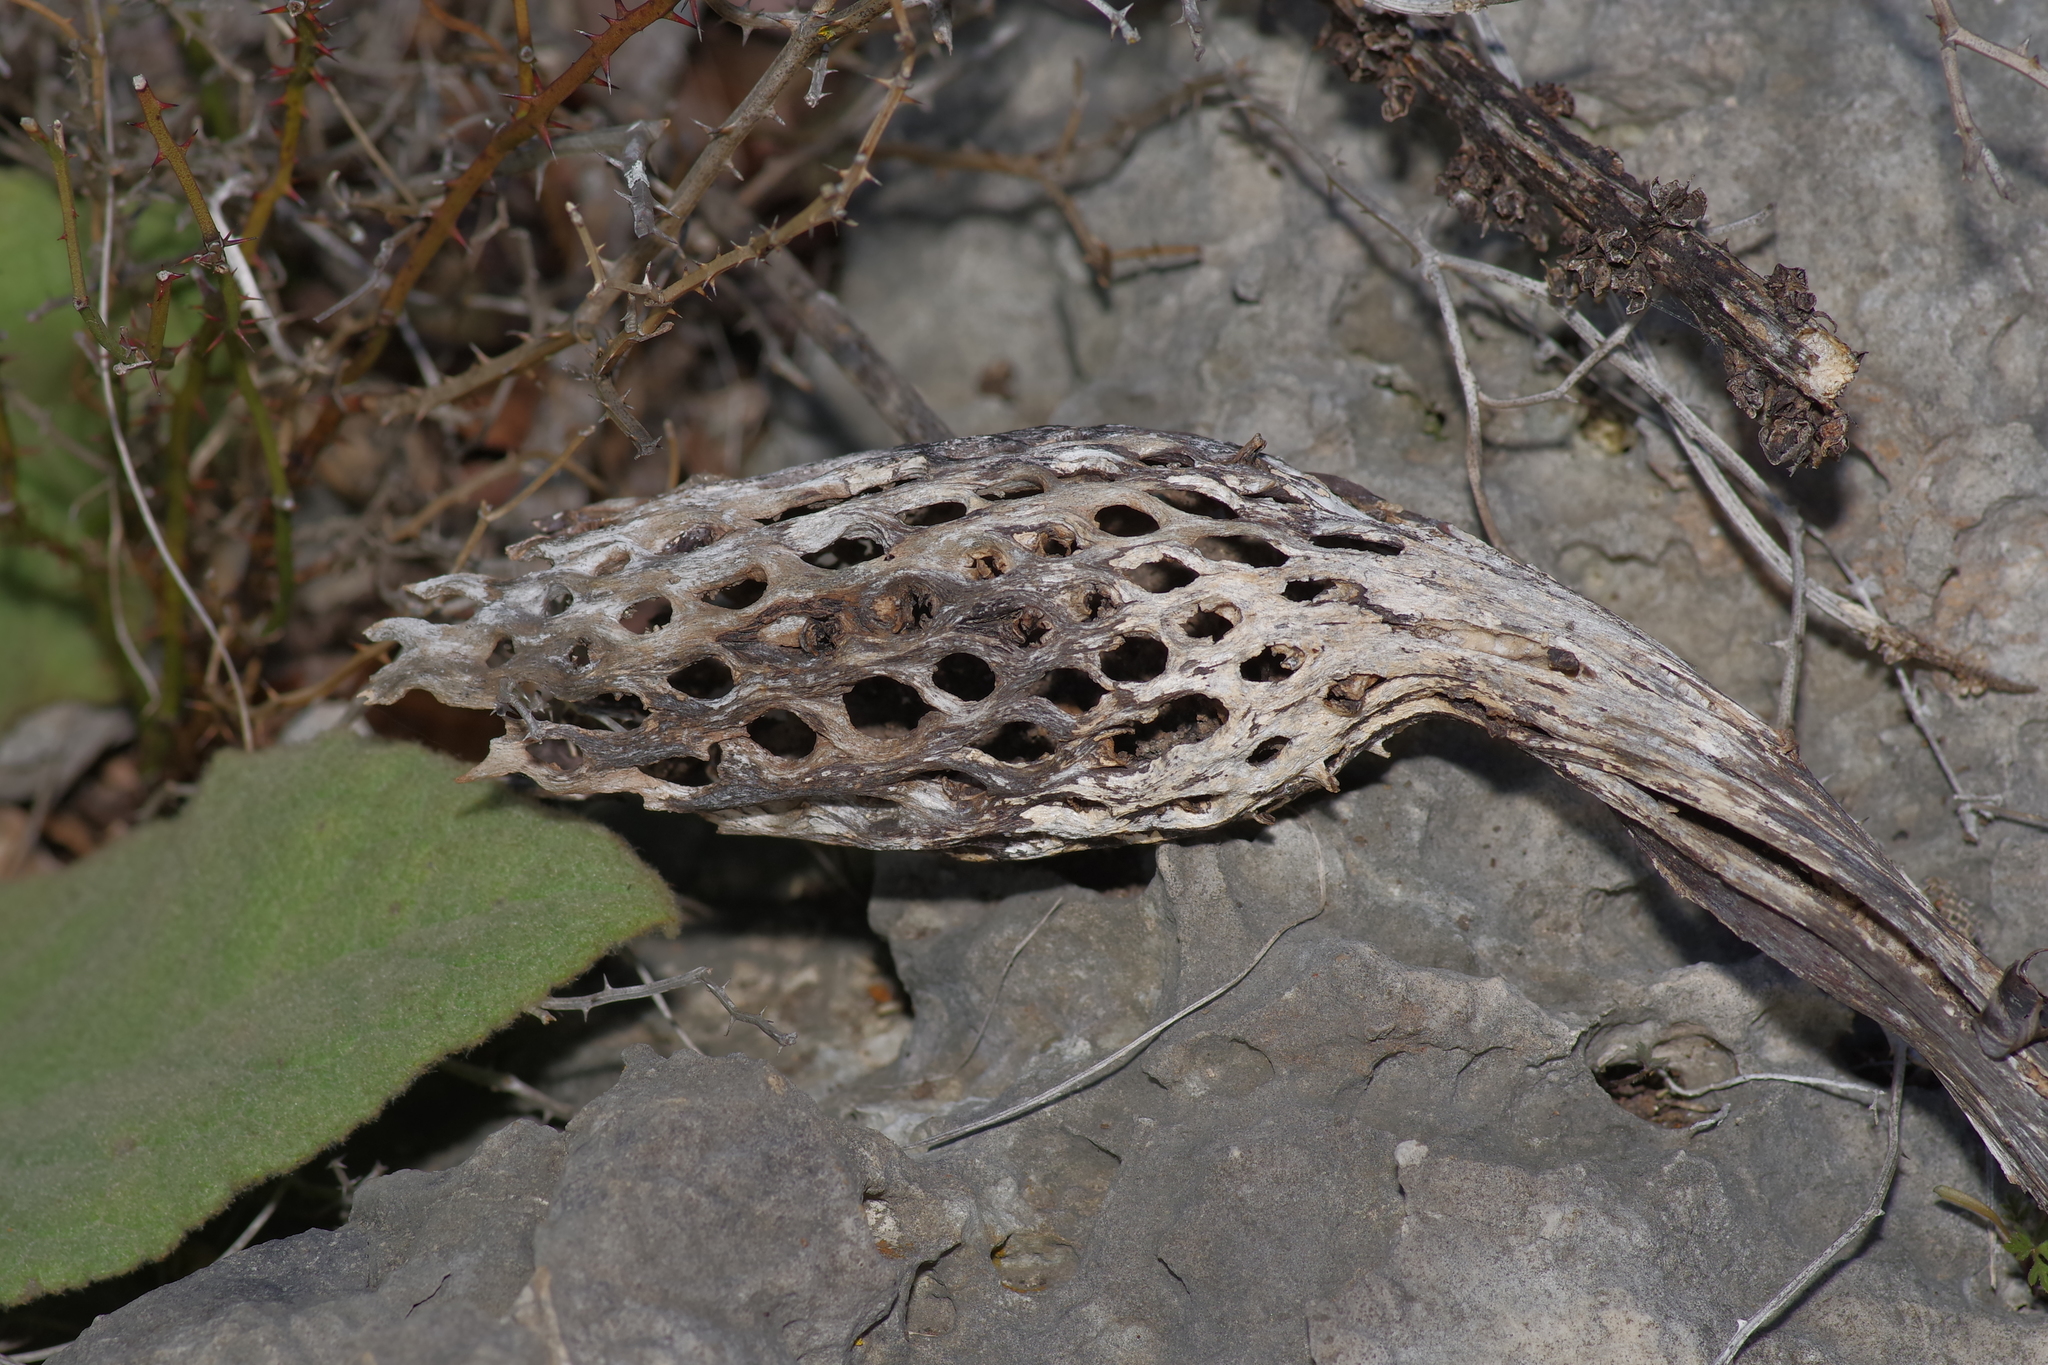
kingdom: Plantae
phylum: Tracheophyta
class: Magnoliopsida
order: Lamiales
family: Scrophulariaceae
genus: Verbascum
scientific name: Verbascum thapsus
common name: Common mullein
